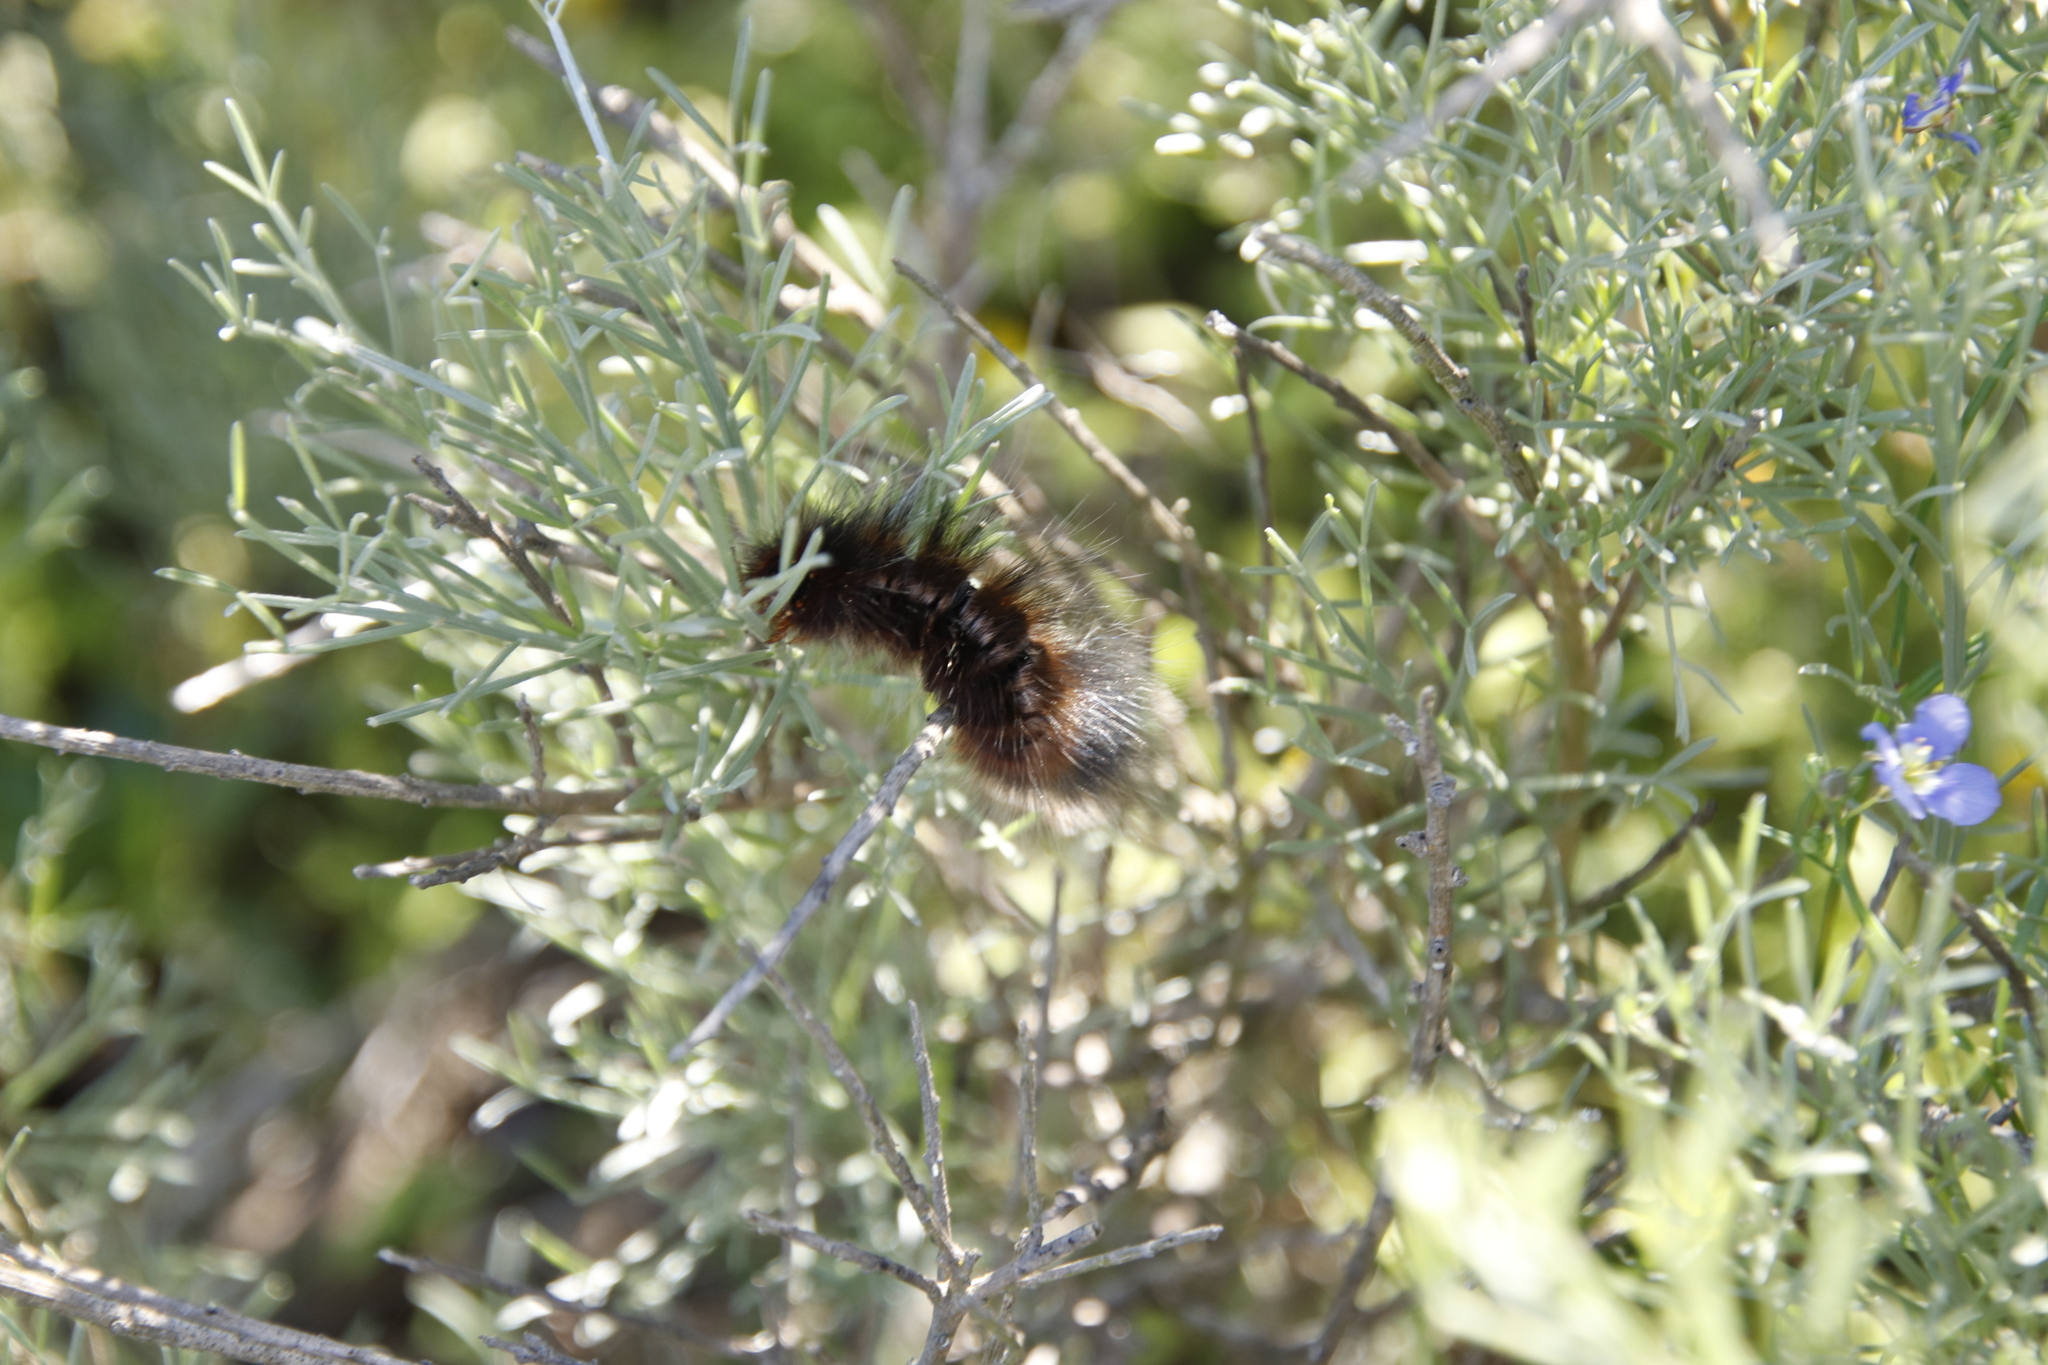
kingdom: Animalia
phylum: Arthropoda
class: Insecta
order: Lepidoptera
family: Lasiocampidae
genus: Mesocelis
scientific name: Mesocelis monticola
